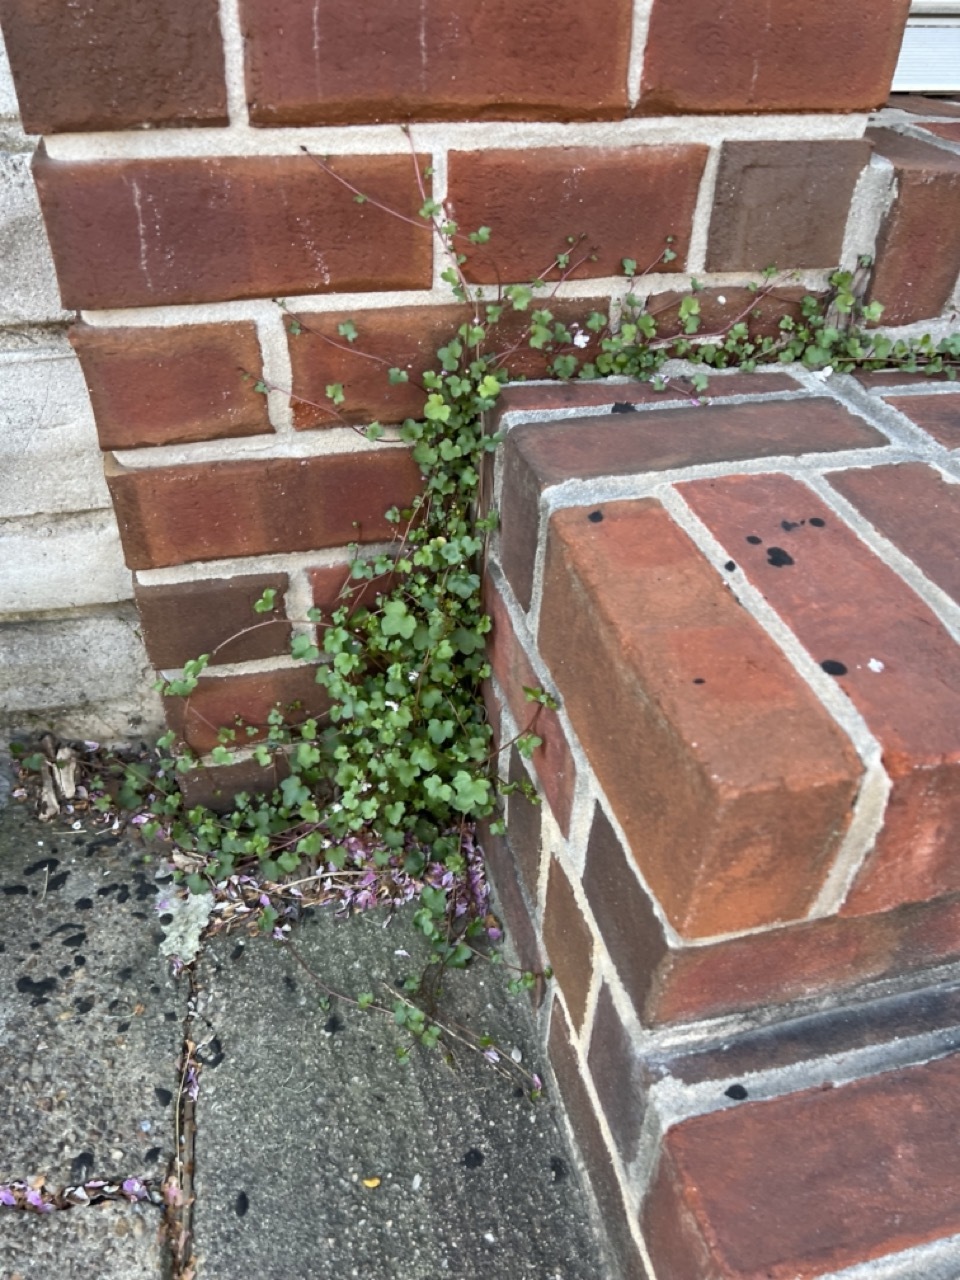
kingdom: Plantae
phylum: Tracheophyta
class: Magnoliopsida
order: Lamiales
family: Plantaginaceae
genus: Cymbalaria
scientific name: Cymbalaria muralis
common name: Ivy-leaved toadflax
